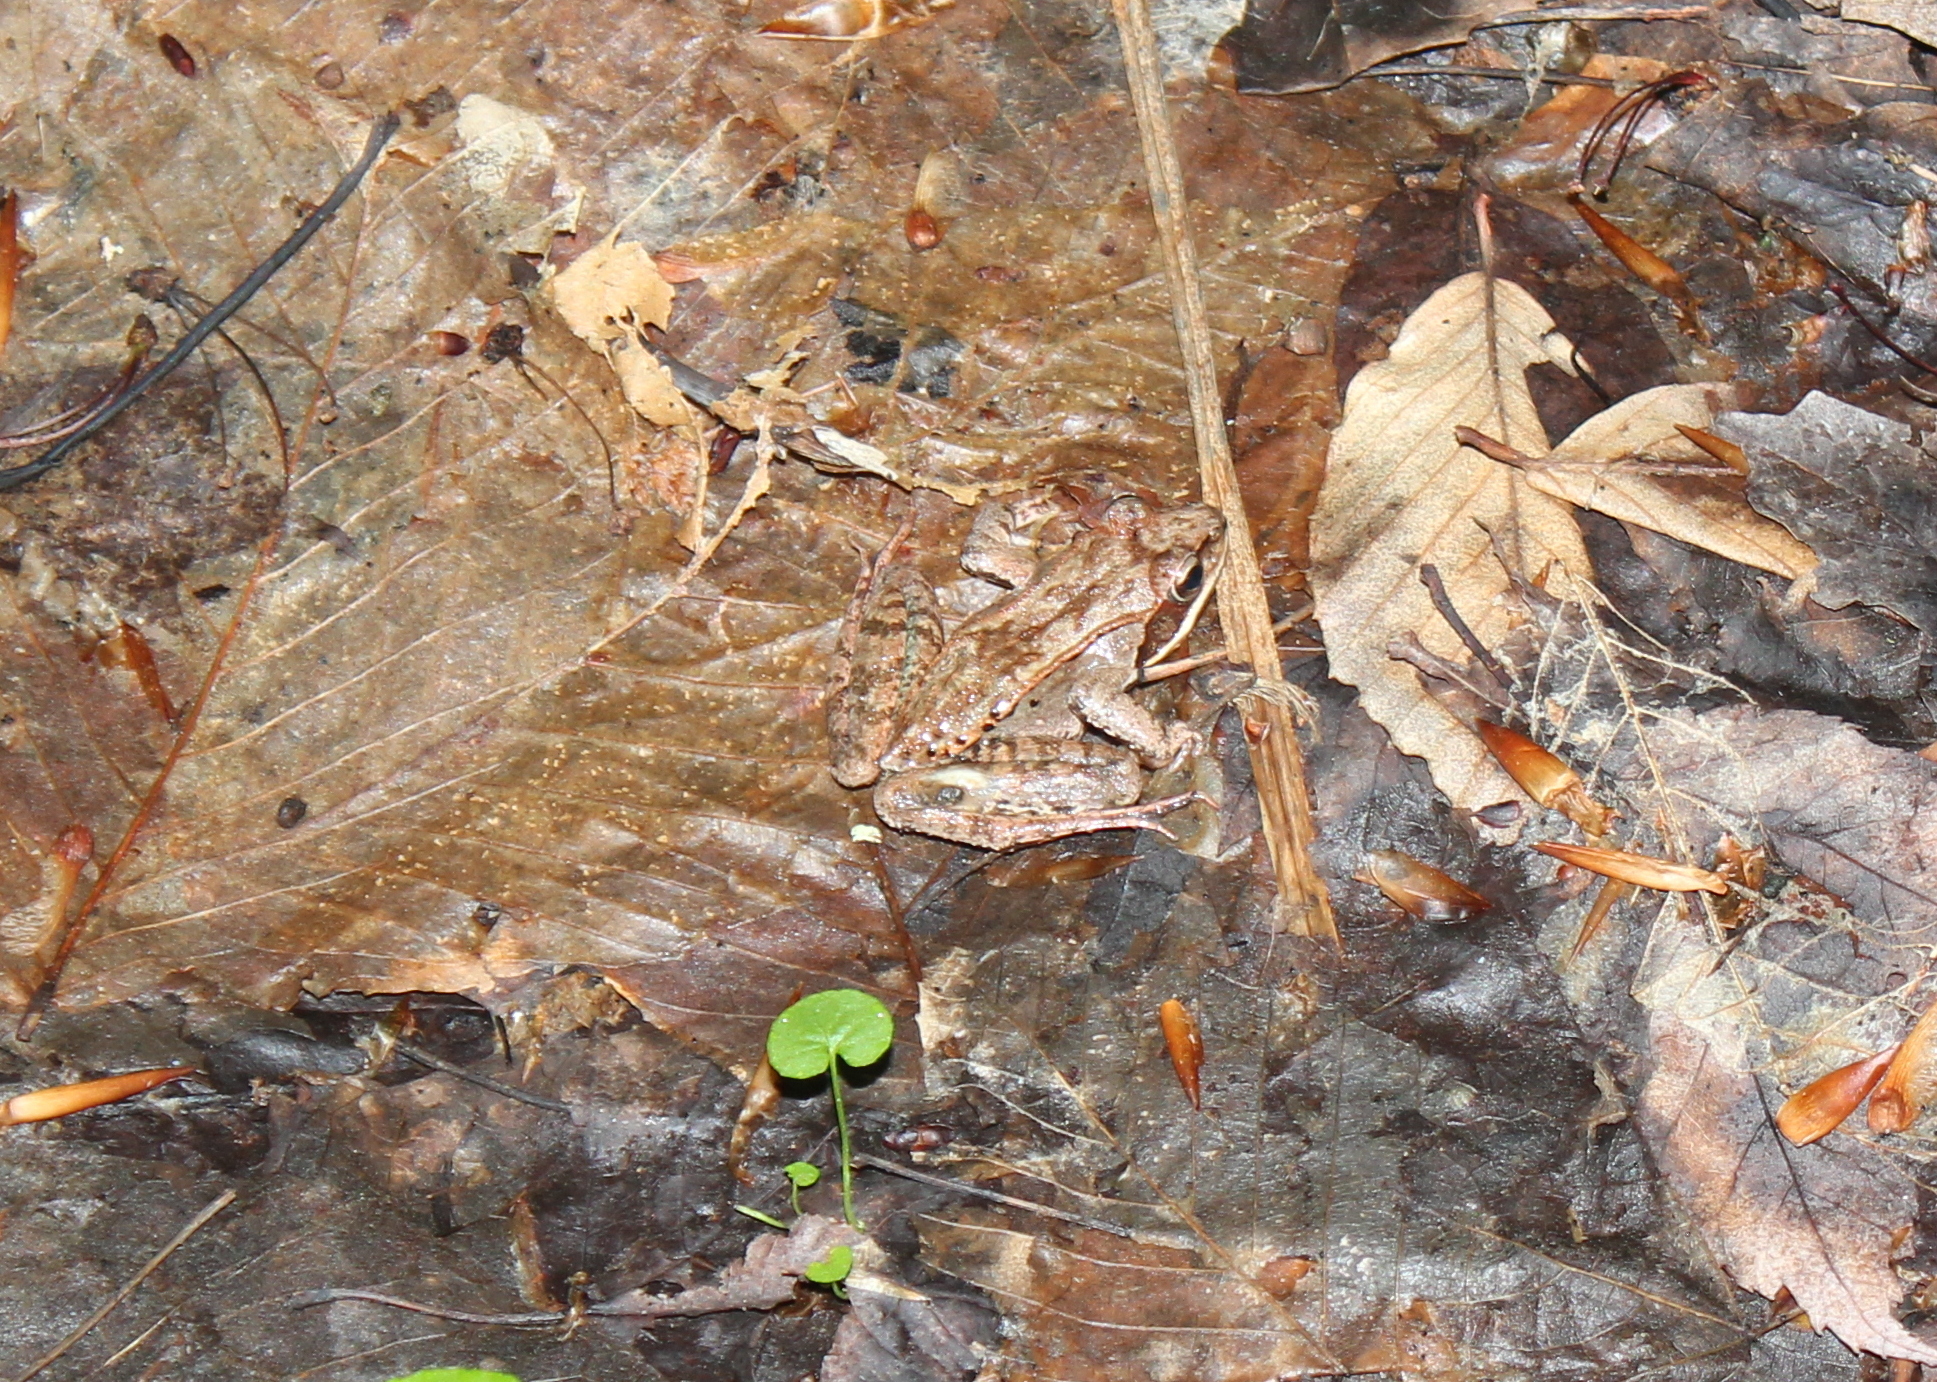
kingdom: Animalia
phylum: Chordata
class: Amphibia
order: Anura
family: Ranidae
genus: Lithobates
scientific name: Lithobates sylvaticus
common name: Wood frog
